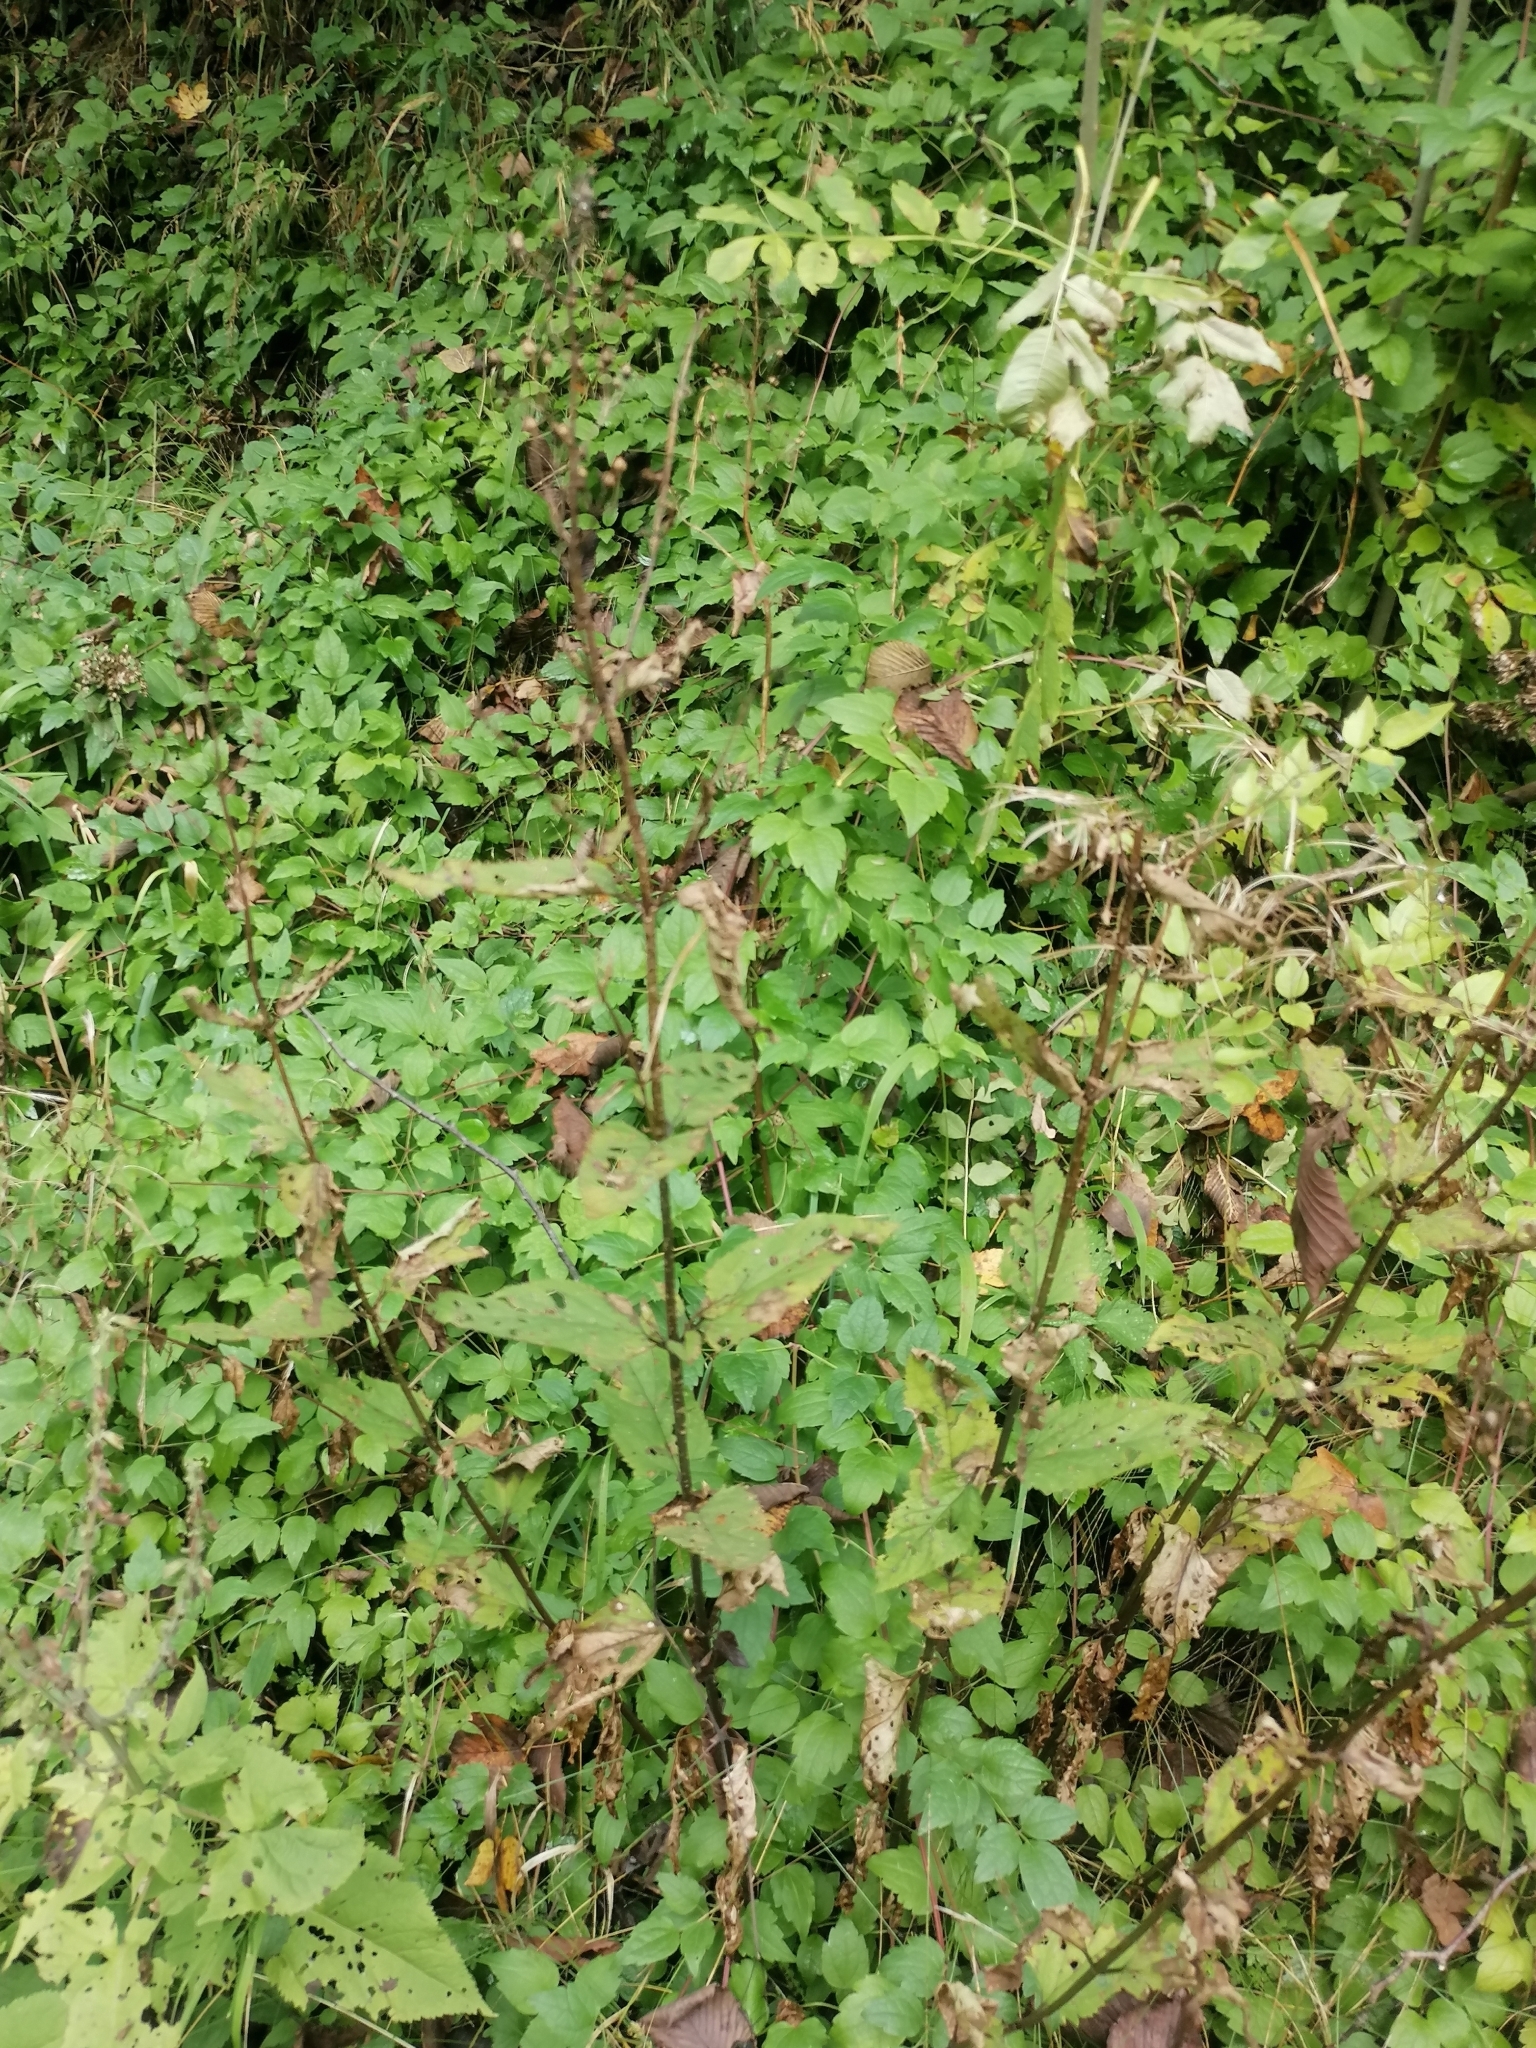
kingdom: Plantae
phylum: Tracheophyta
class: Magnoliopsida
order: Lamiales
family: Scrophulariaceae
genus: Scrophularia
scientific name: Scrophularia nodosa
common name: Common figwort
